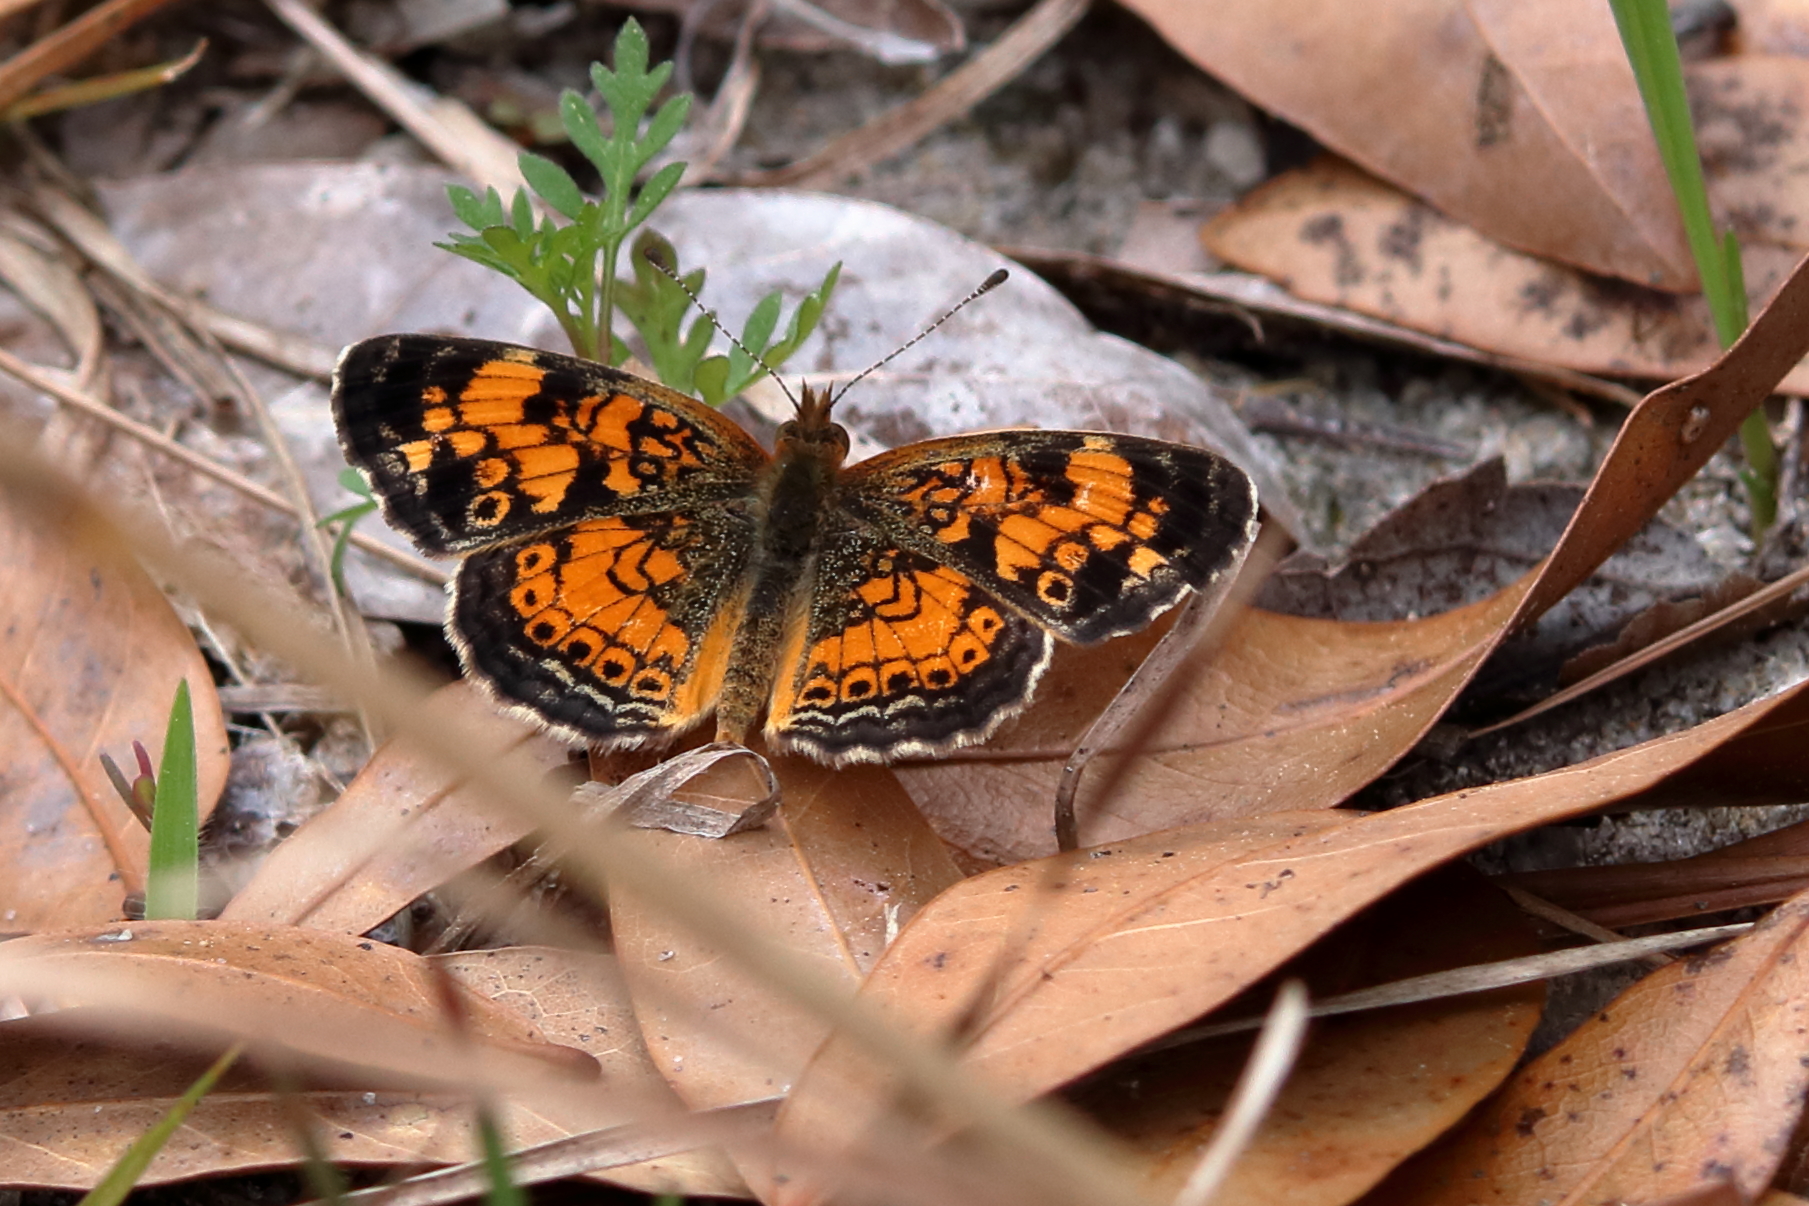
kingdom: Animalia
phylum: Arthropoda
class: Insecta
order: Lepidoptera
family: Nymphalidae
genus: Phyciodes
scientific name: Phyciodes tharos
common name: Pearl crescent
